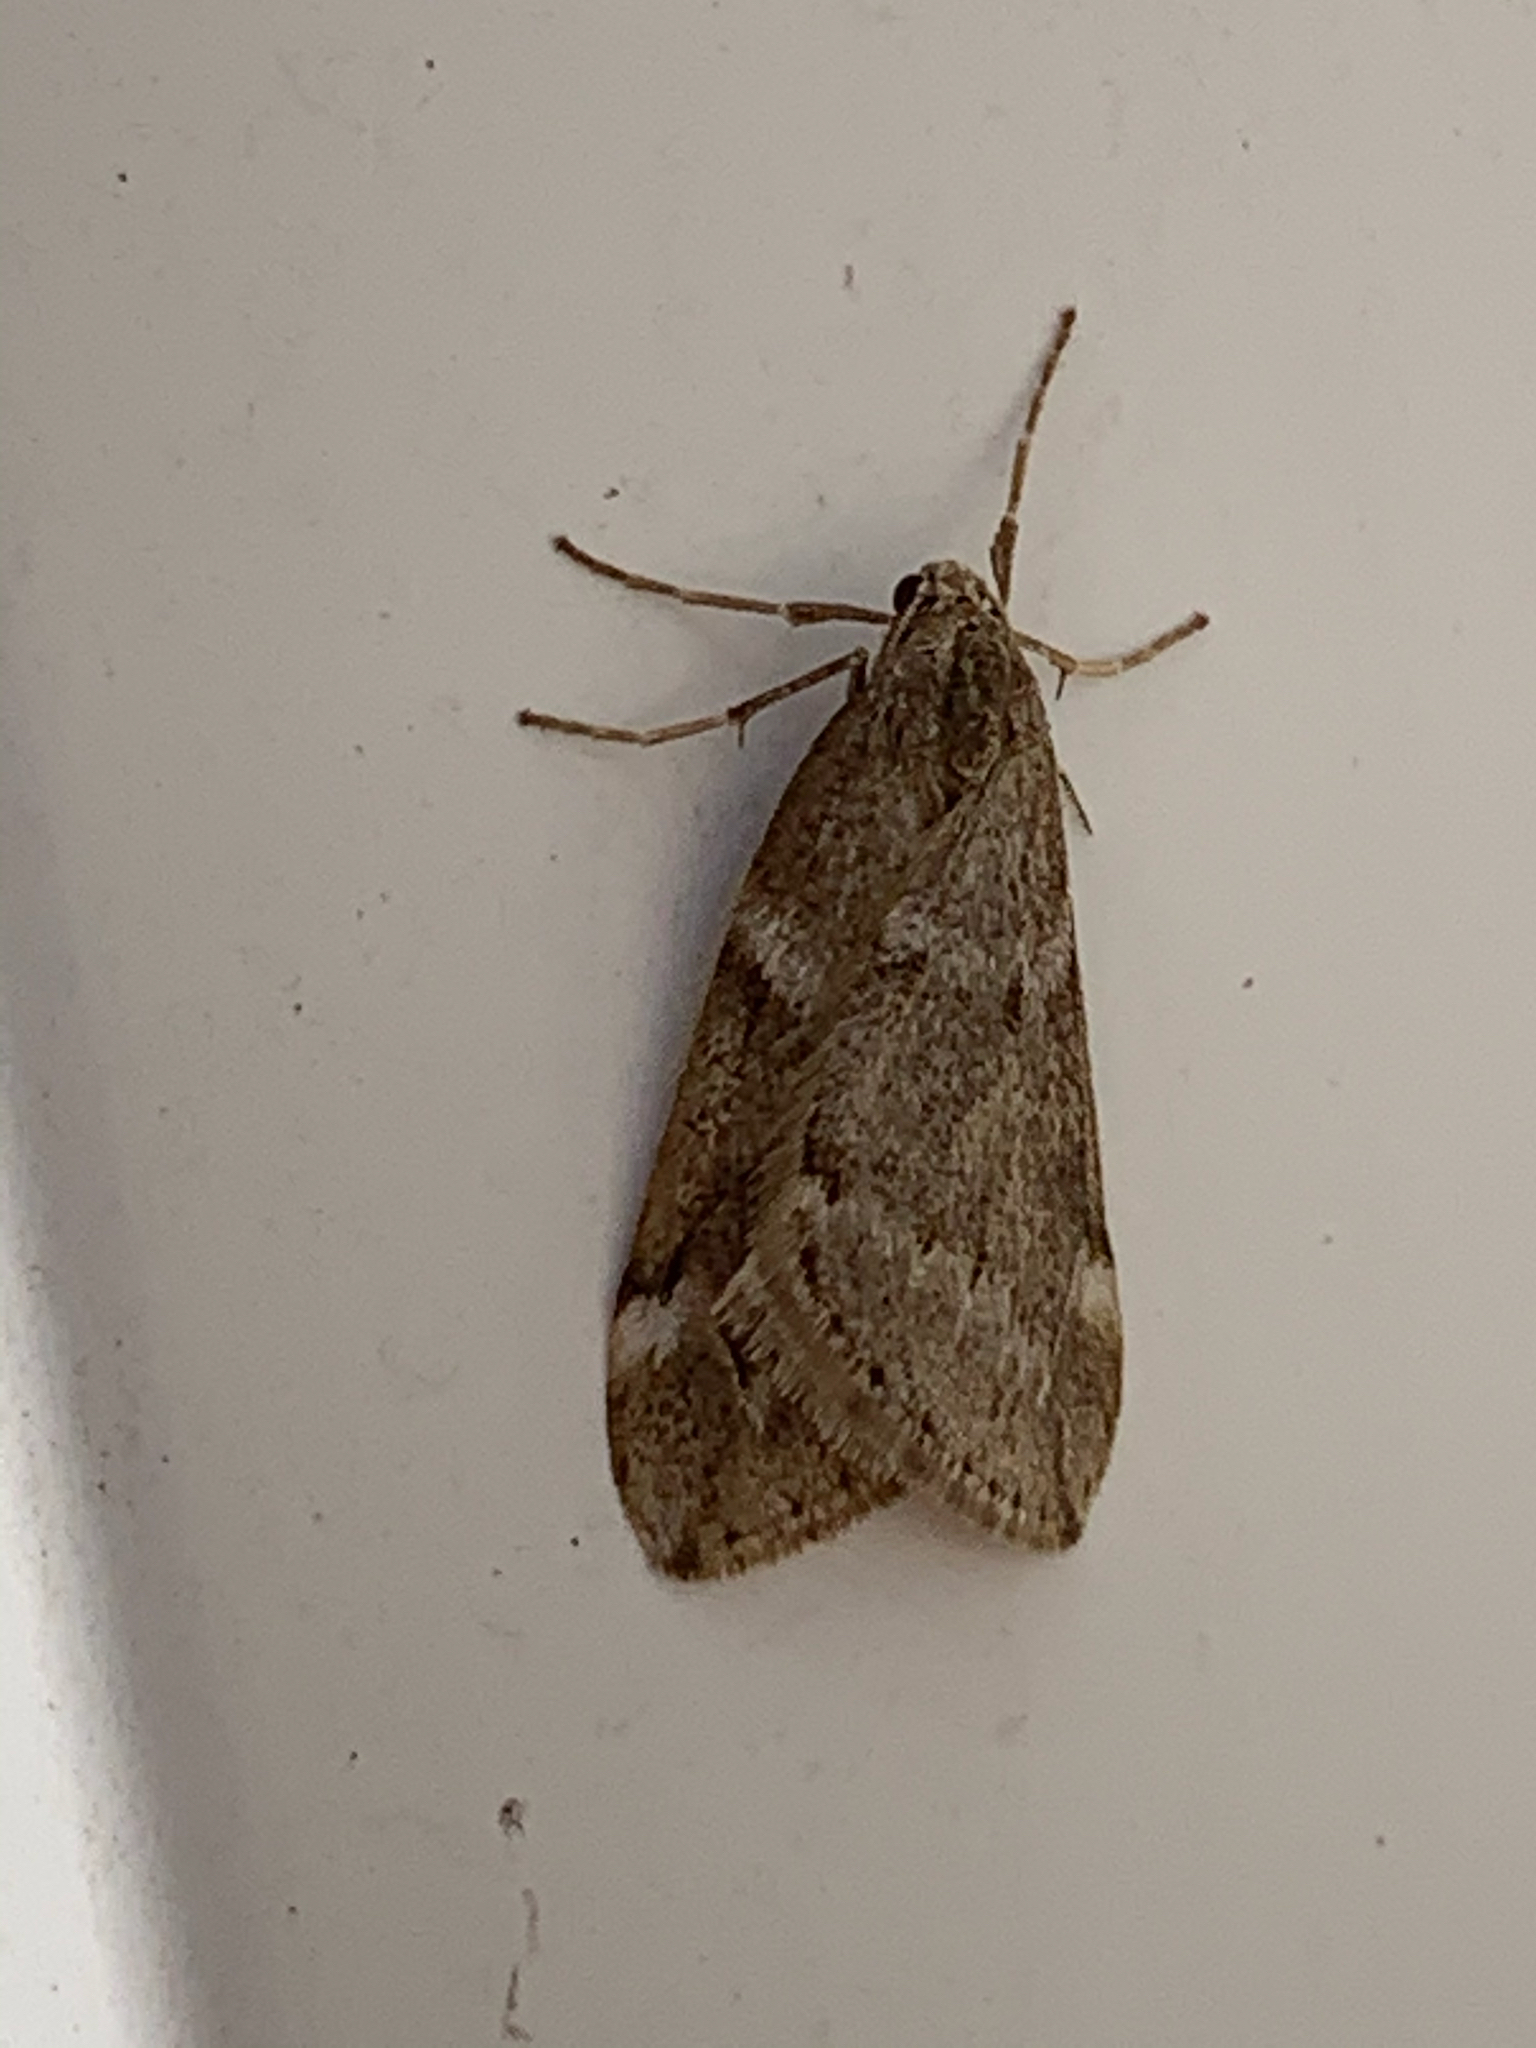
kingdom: Animalia
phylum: Arthropoda
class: Insecta
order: Lepidoptera
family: Geometridae
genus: Alsophila
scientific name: Alsophila pometaria
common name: Fall cankerworm
